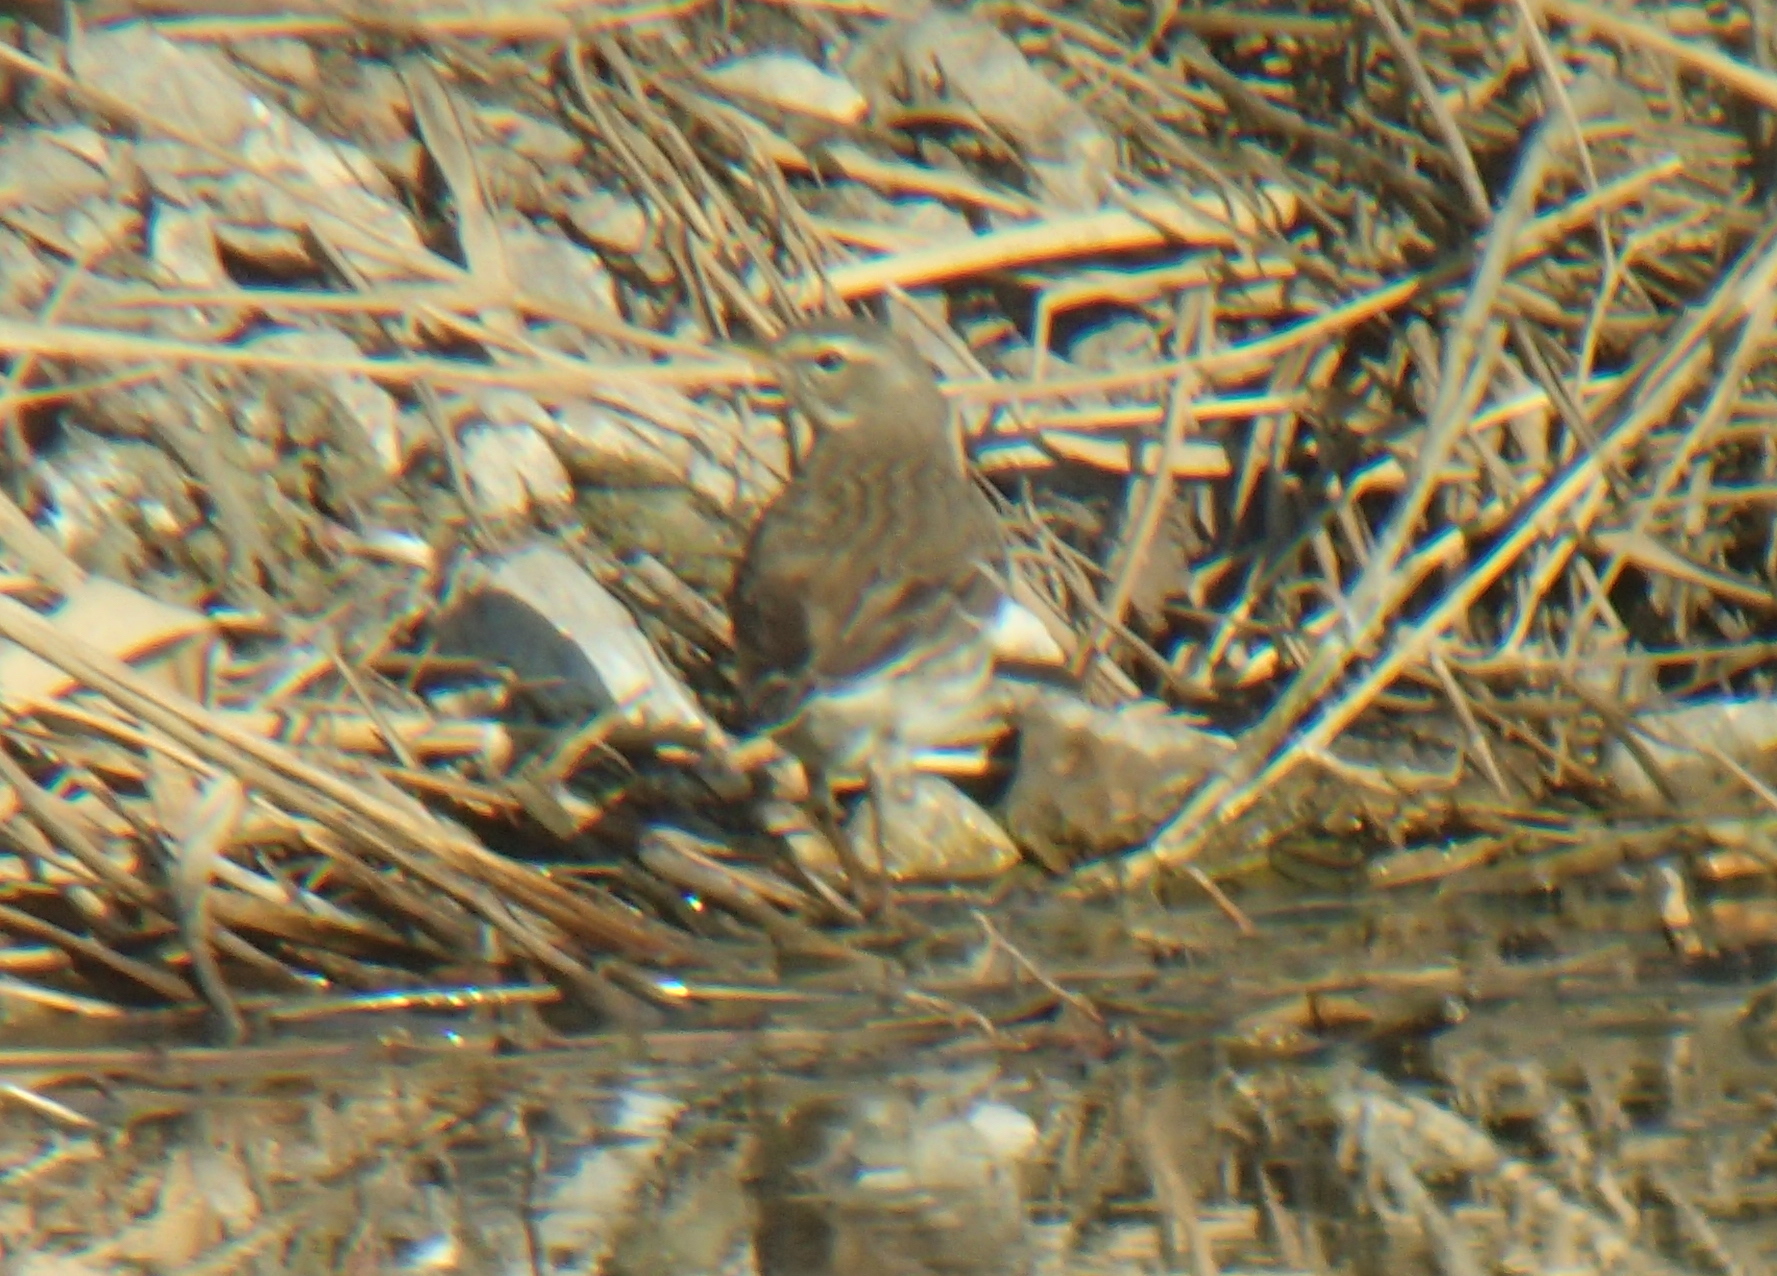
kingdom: Animalia
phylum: Chordata
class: Aves
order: Passeriformes
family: Motacillidae
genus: Anthus
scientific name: Anthus spinoletta
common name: Water pipit
